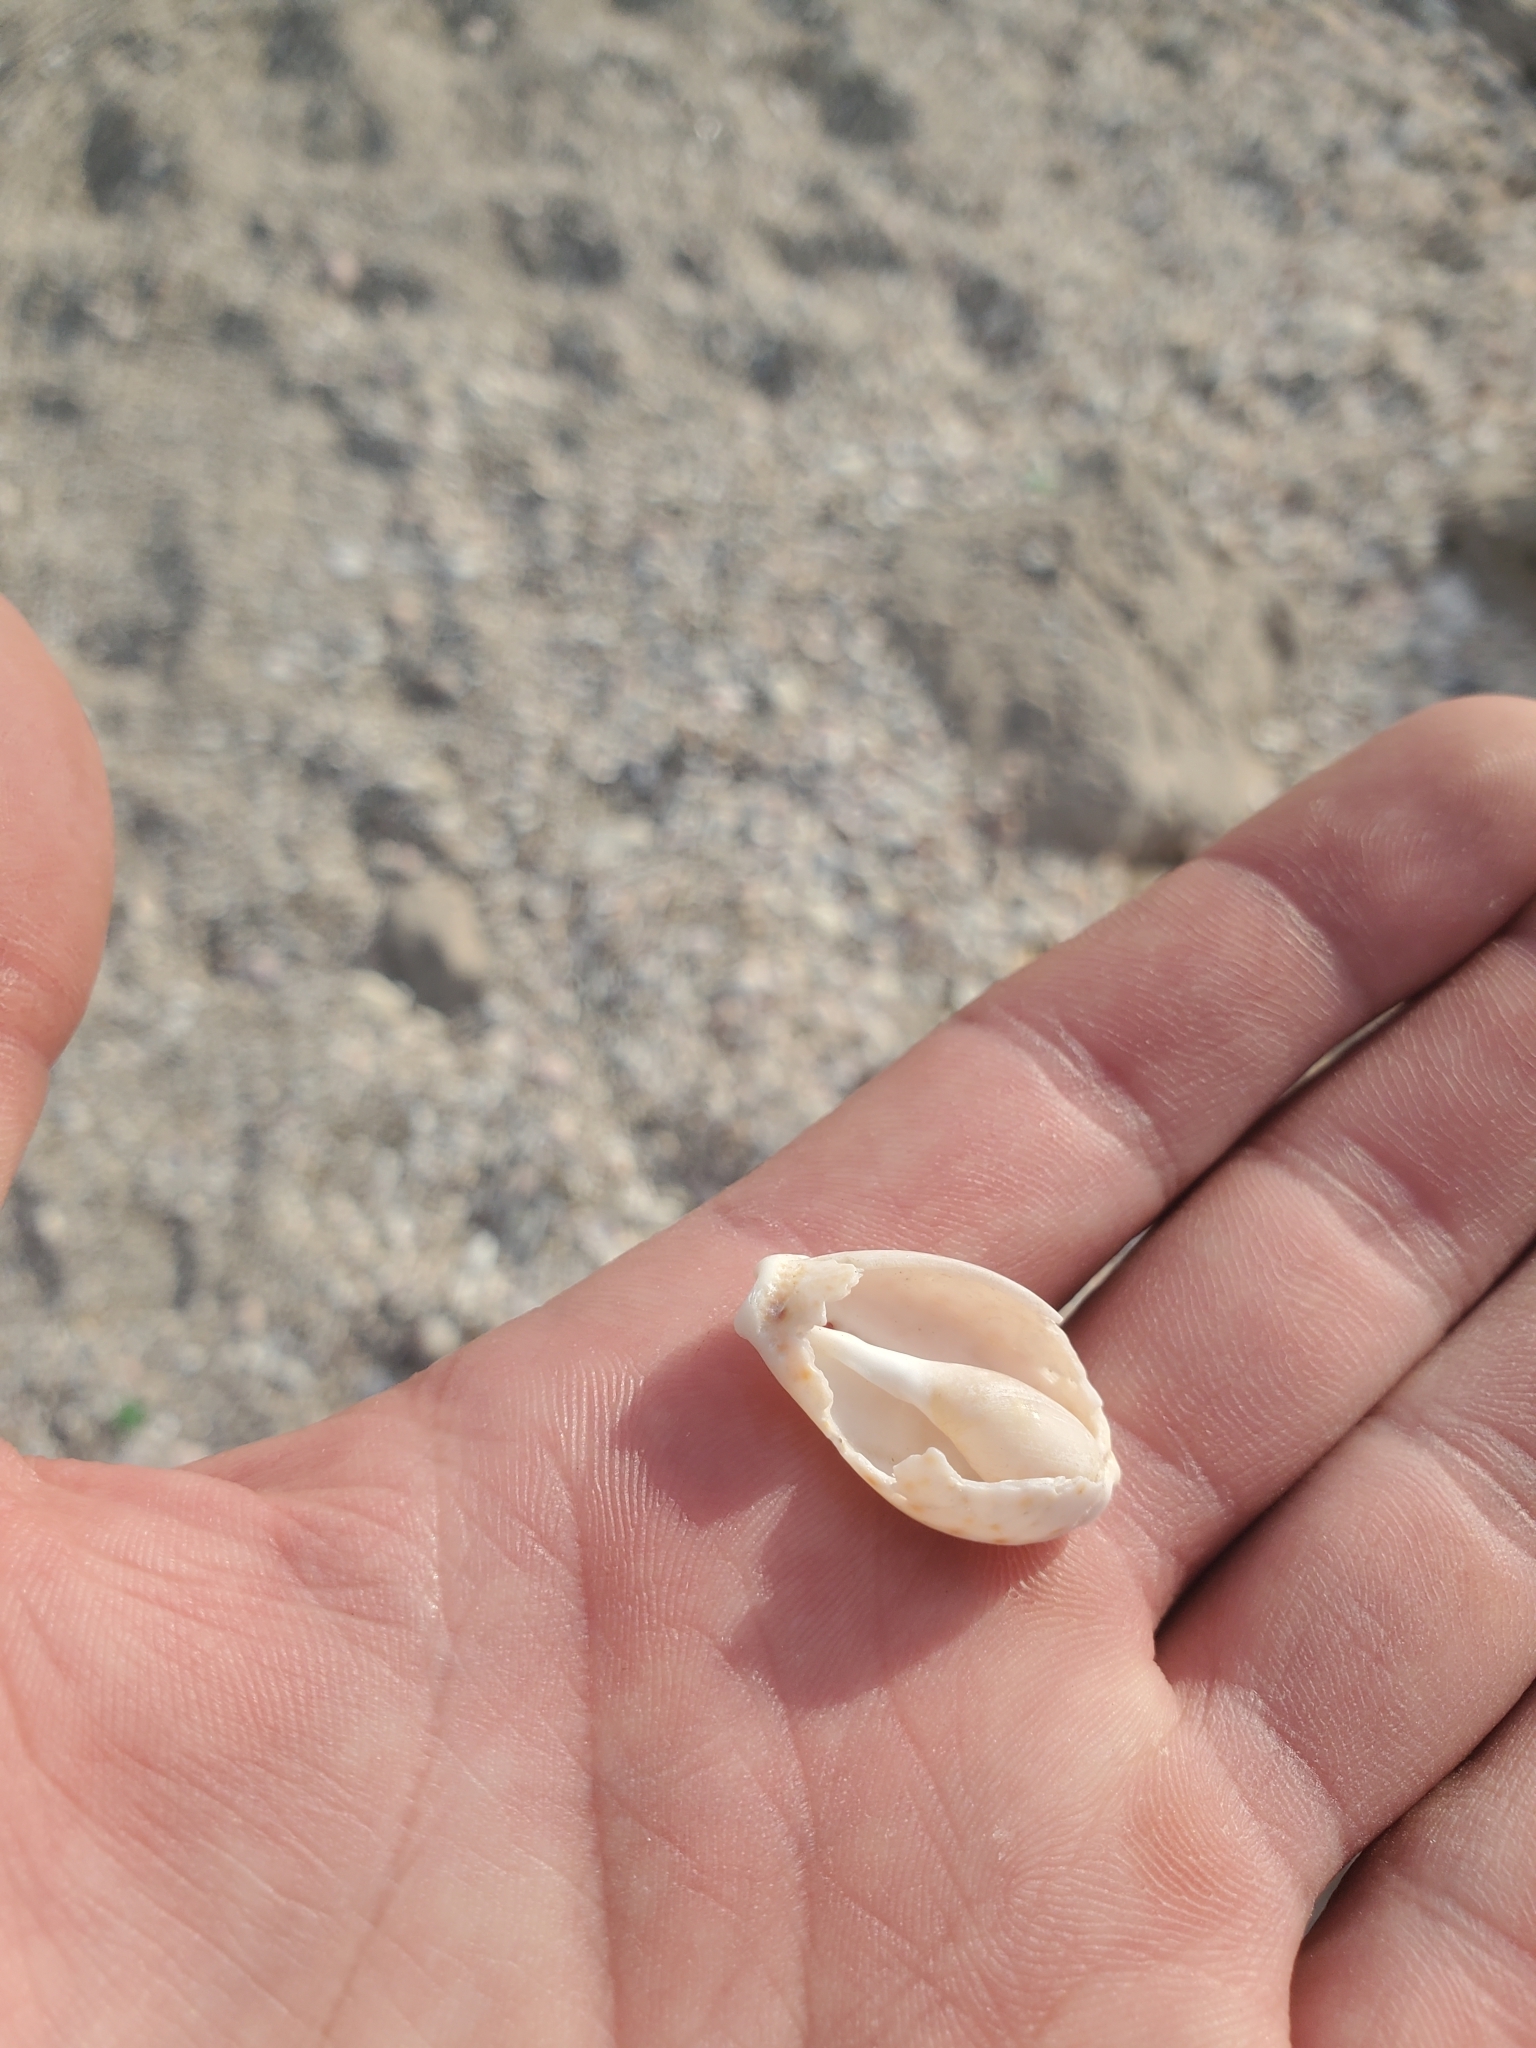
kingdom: Animalia
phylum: Mollusca
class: Gastropoda
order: Littorinimorpha
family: Cypraeidae
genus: Naria
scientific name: Naria spurca
